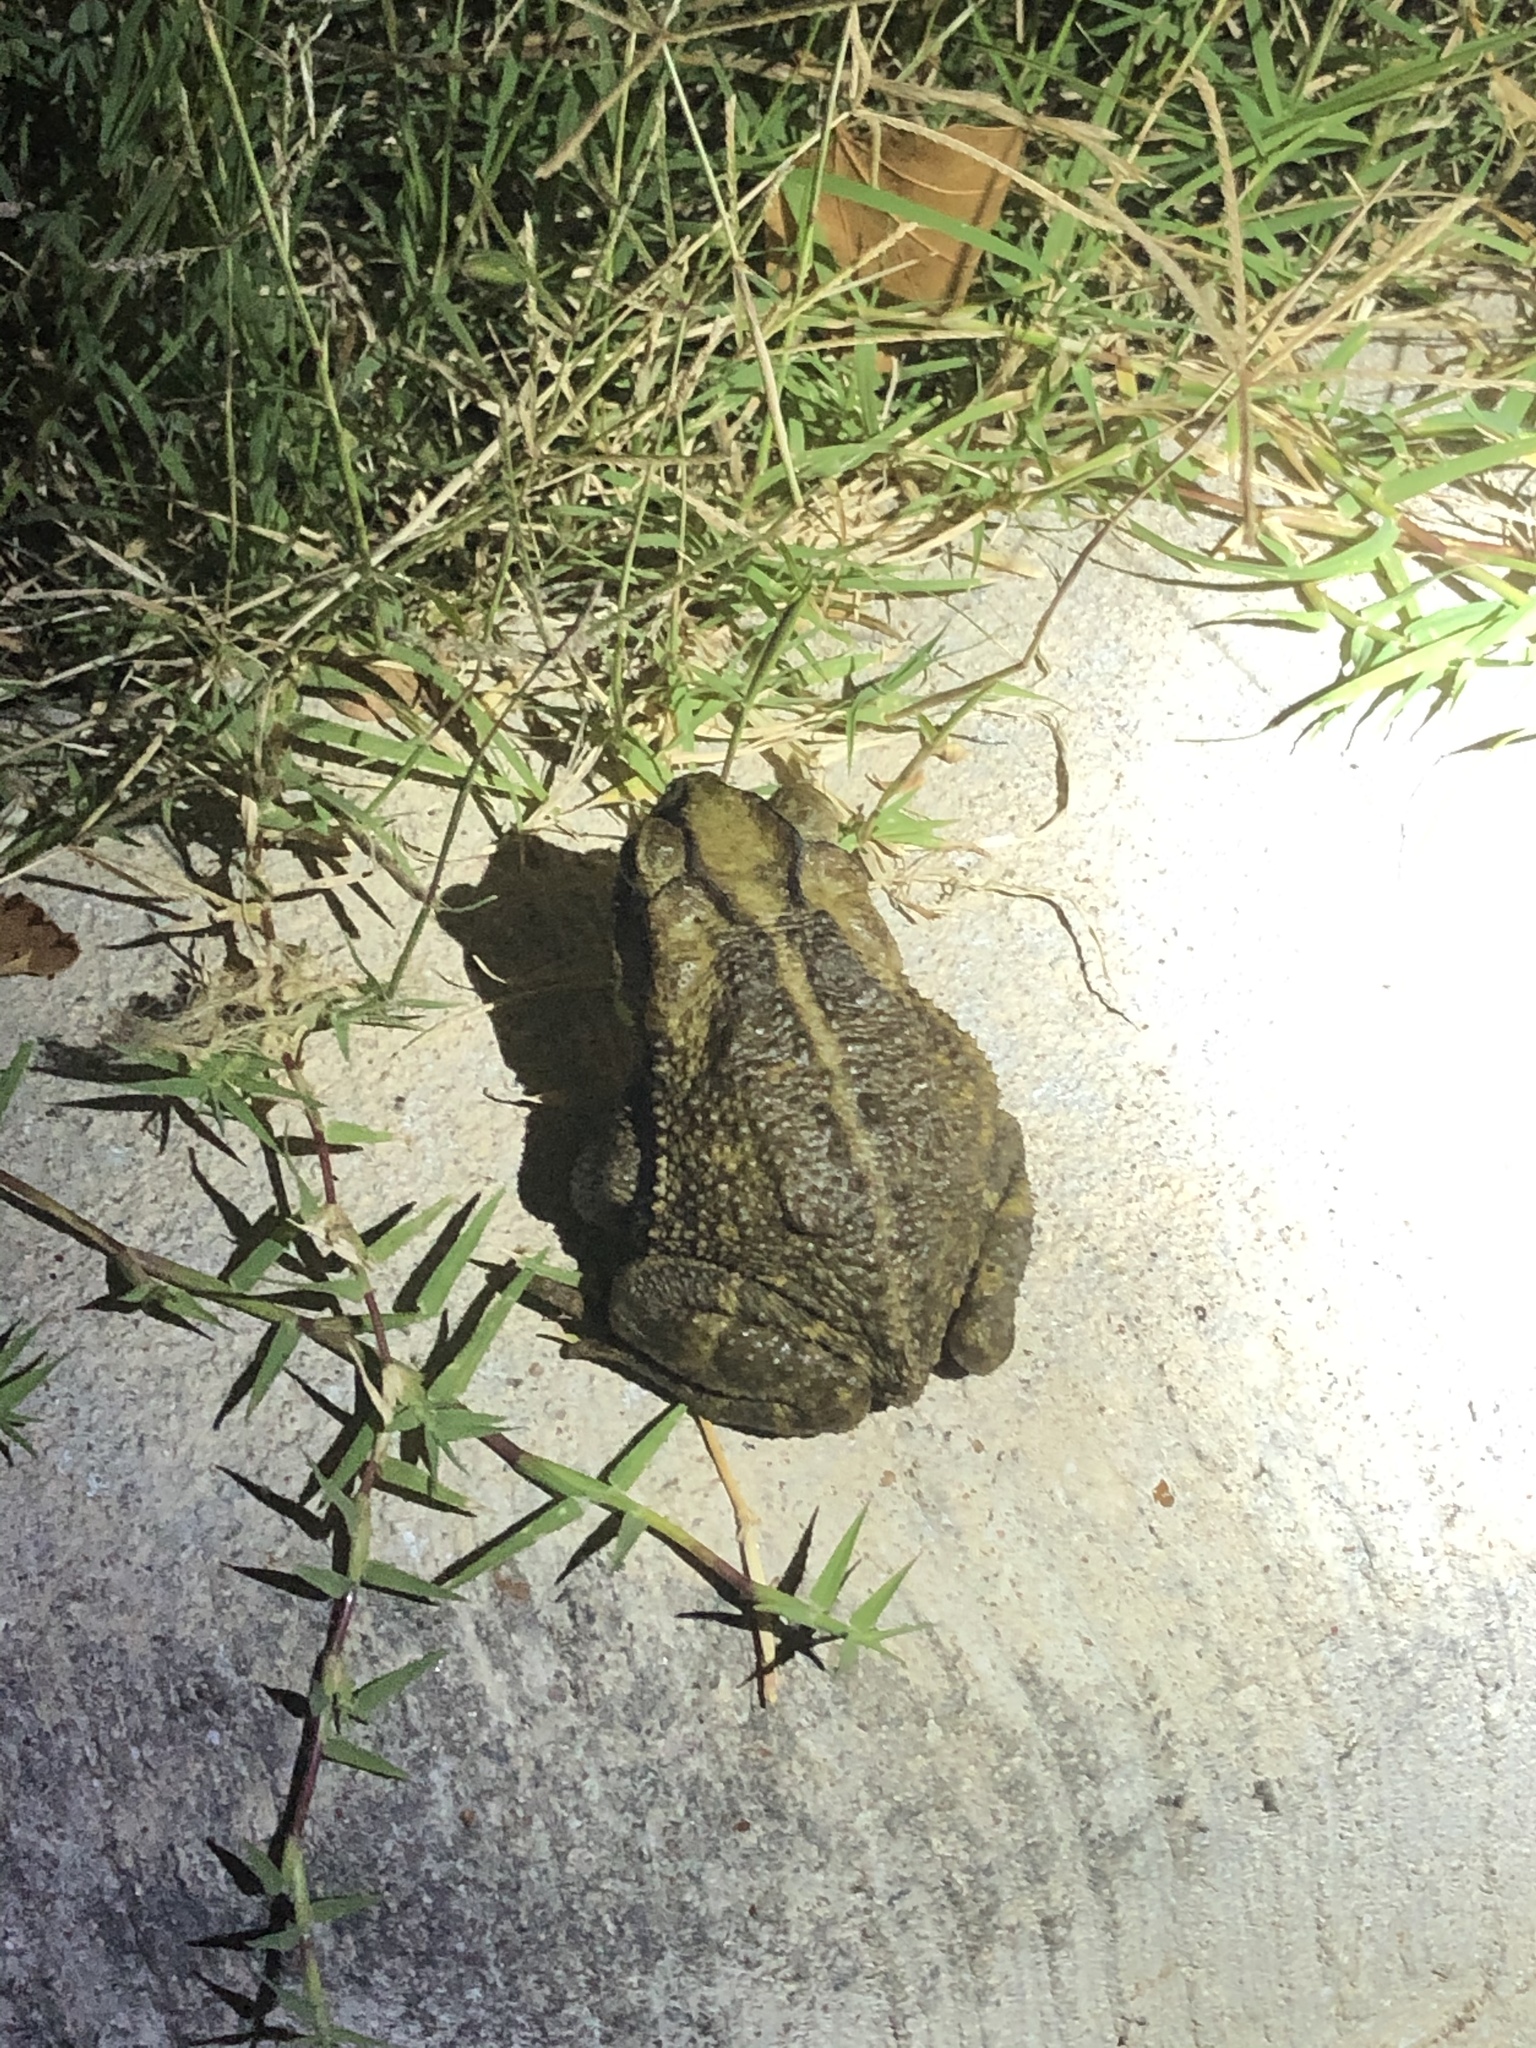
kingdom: Animalia
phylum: Chordata
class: Amphibia
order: Anura
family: Bufonidae
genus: Incilius
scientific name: Incilius nebulifer
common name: Gulf coast toad
